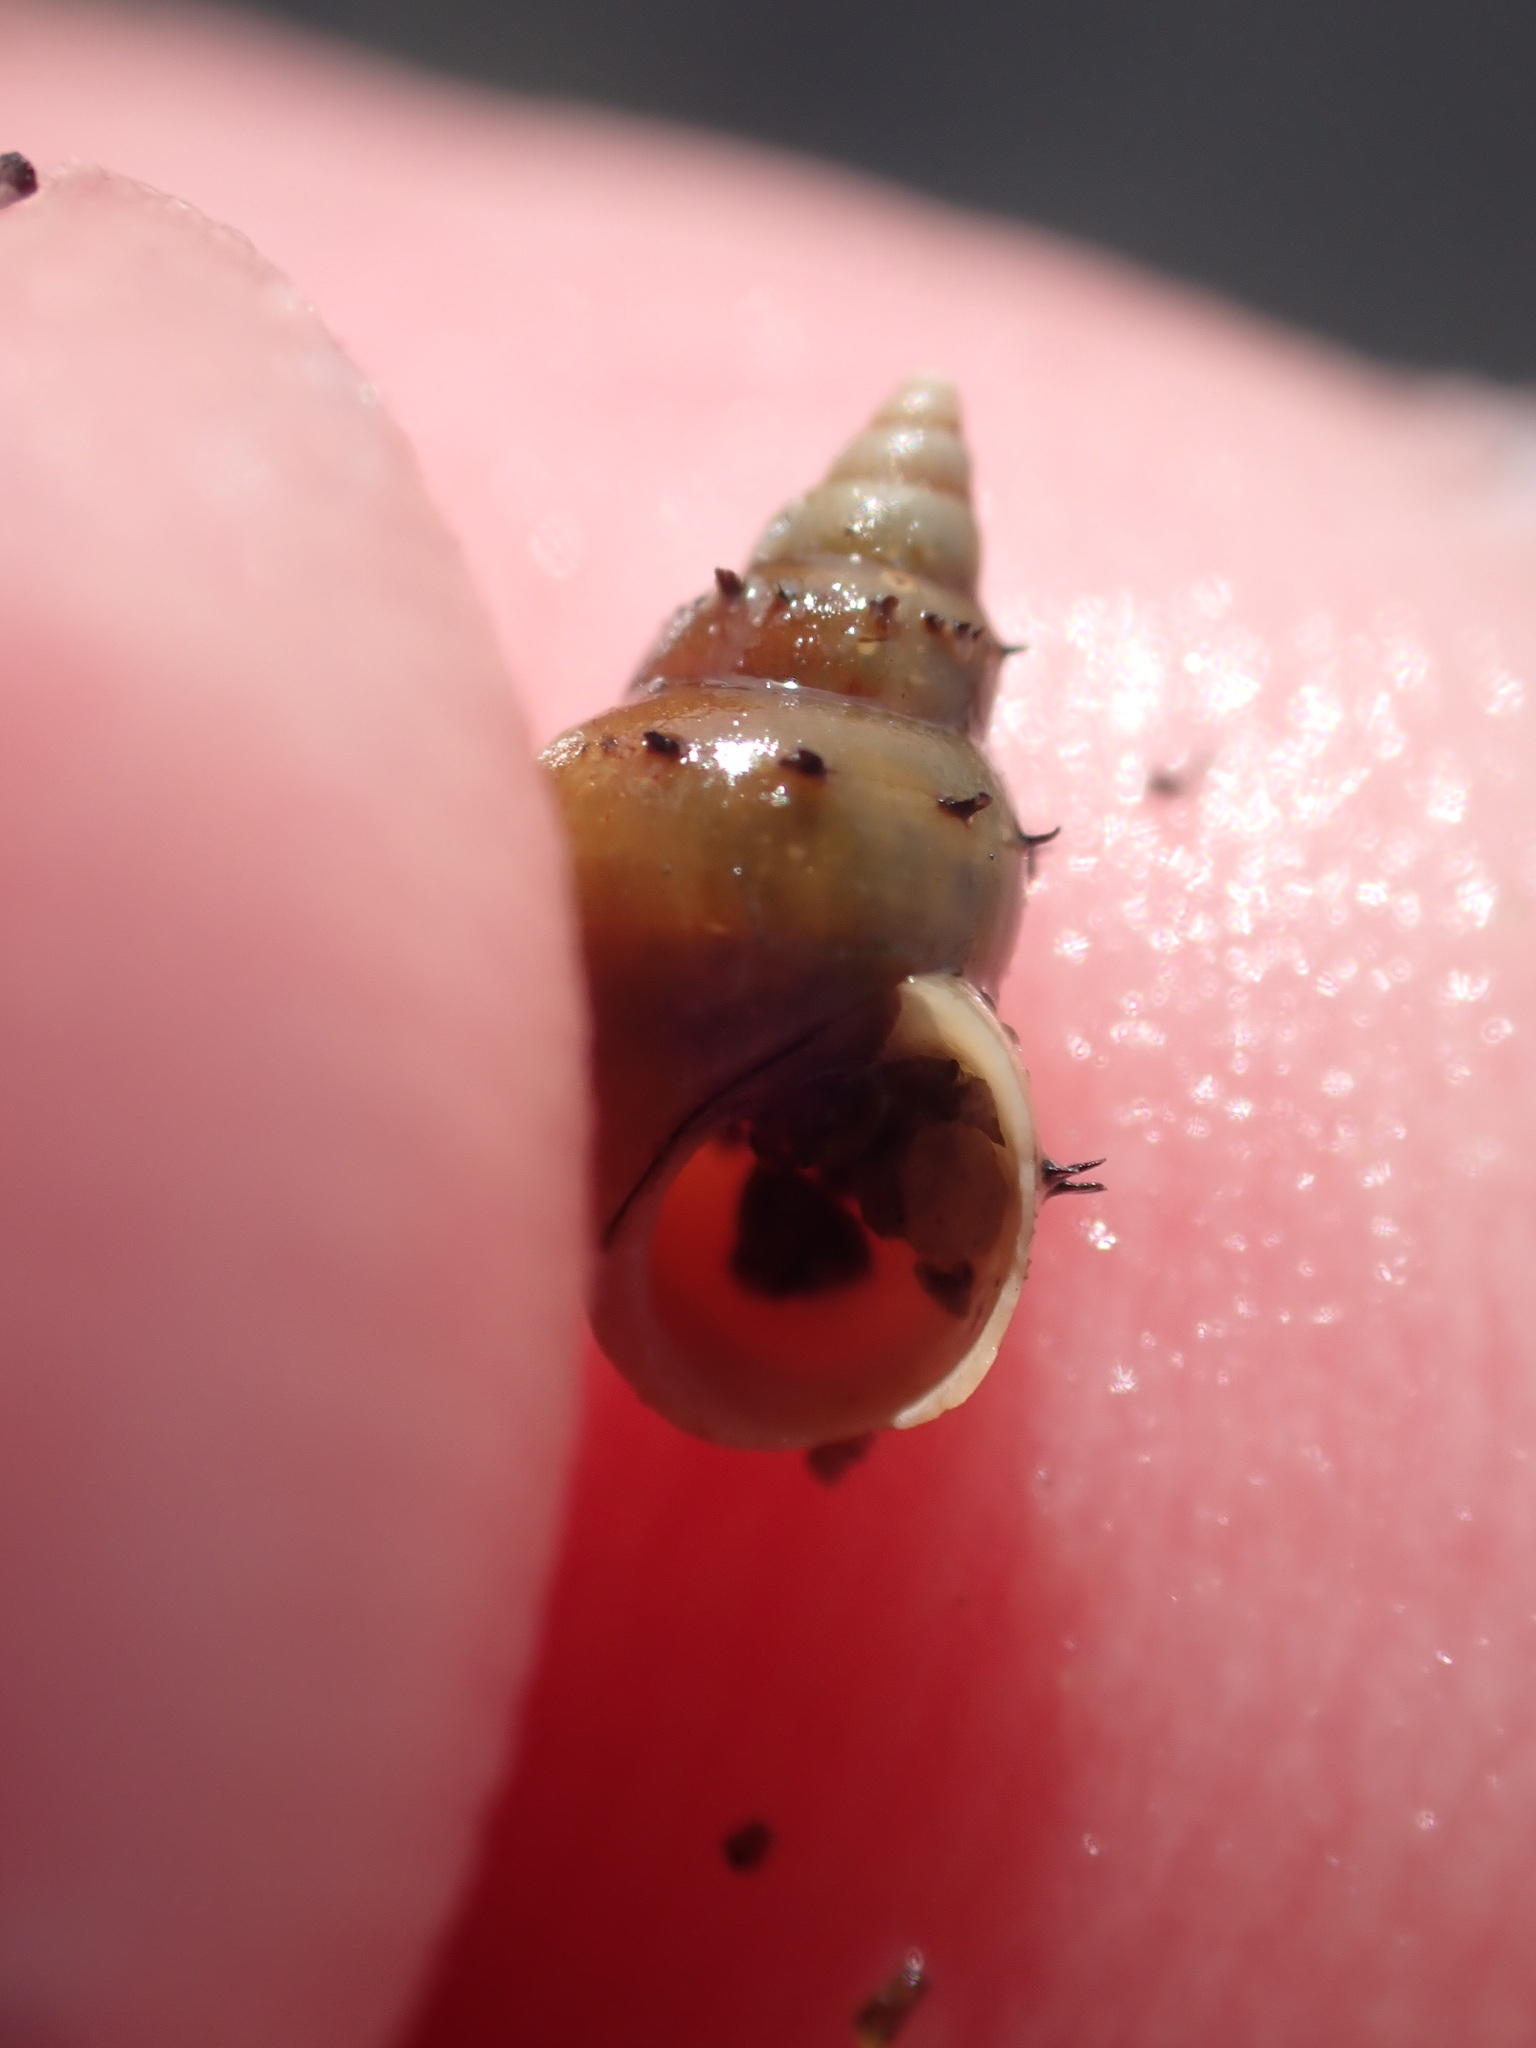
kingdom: Animalia
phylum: Mollusca
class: Gastropoda
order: Littorinimorpha
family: Tateidae
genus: Potamopyrgus
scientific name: Potamopyrgus antipodarum
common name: Jenkins' spire snail
